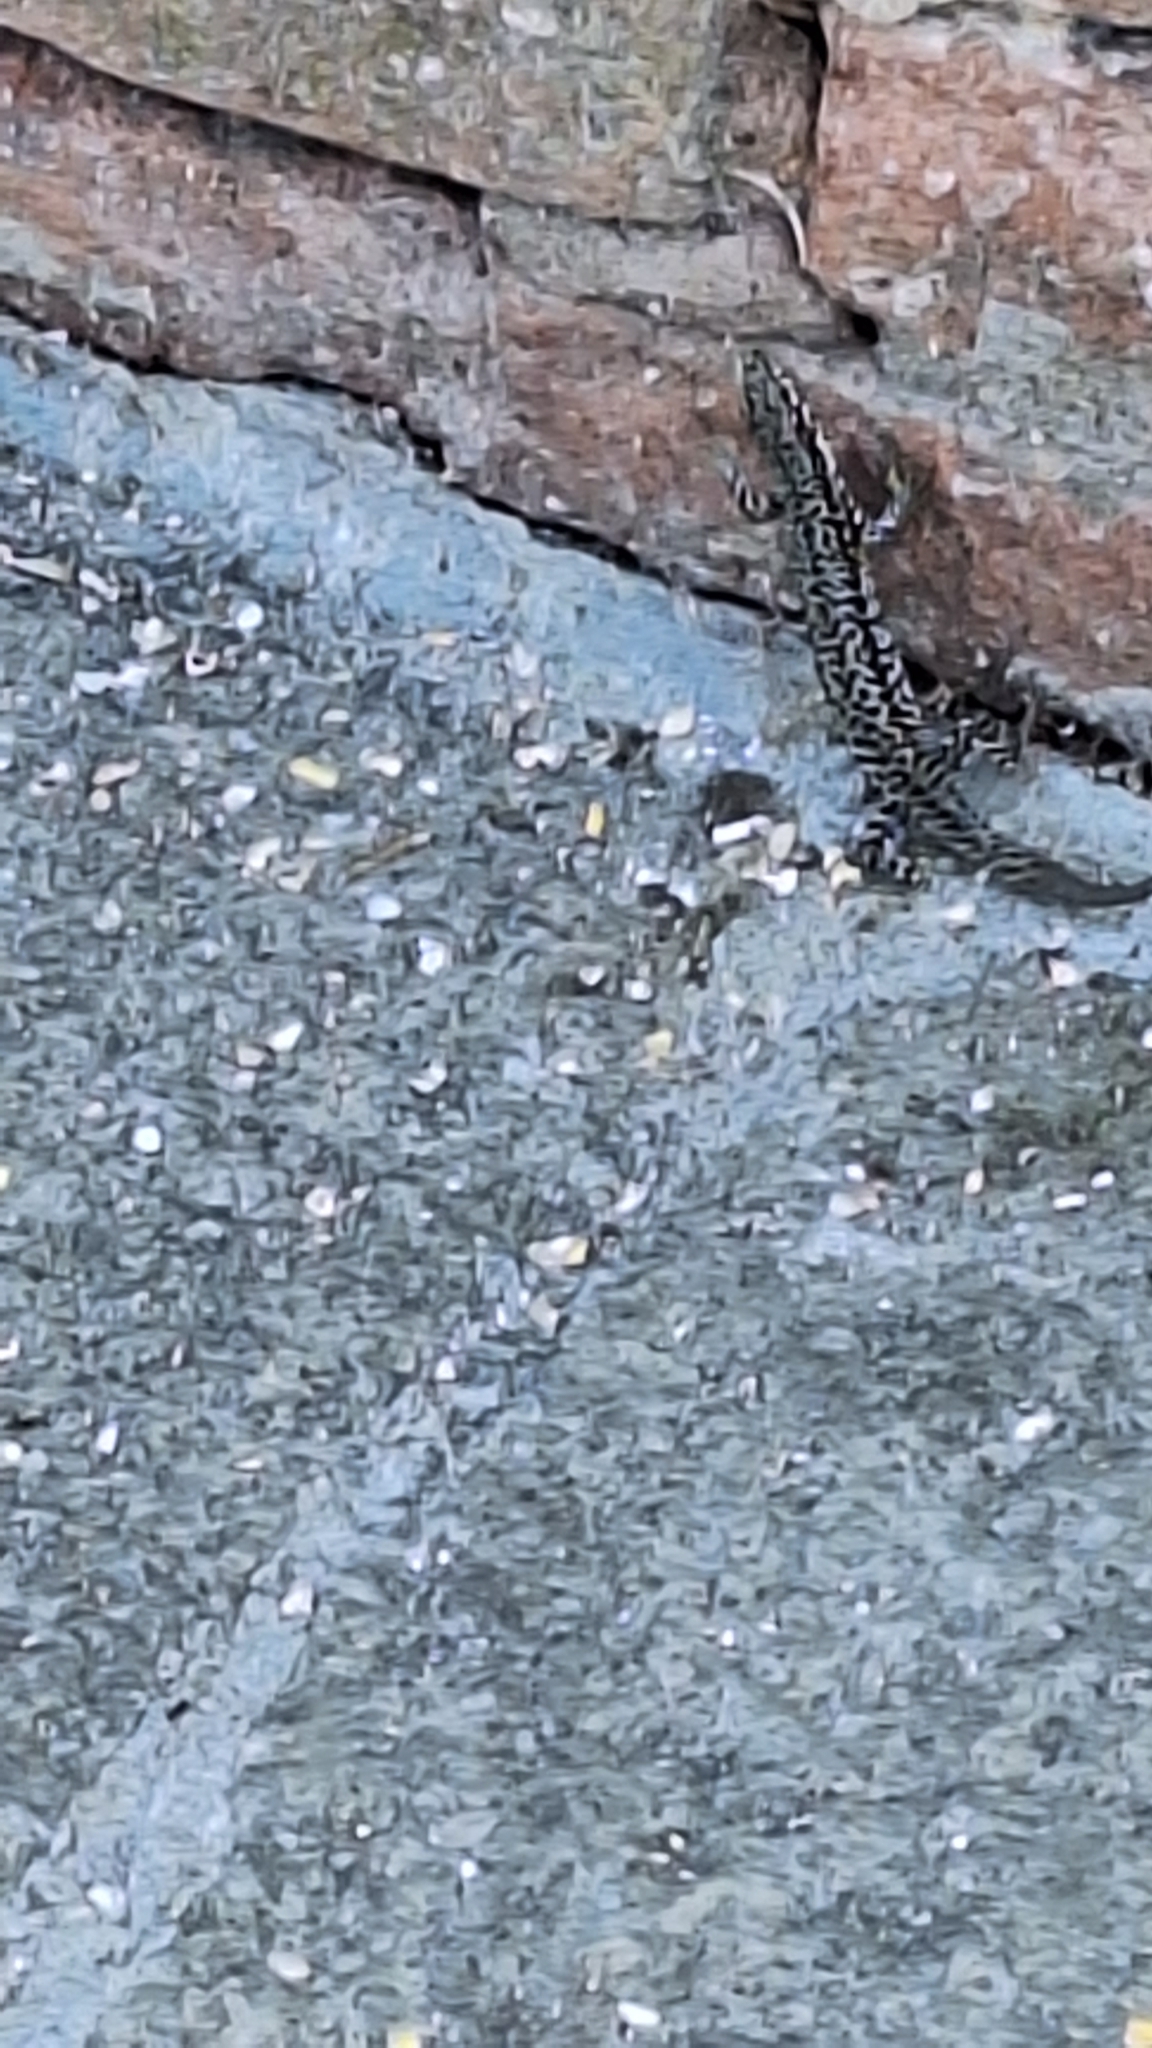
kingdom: Animalia
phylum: Chordata
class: Squamata
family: Lacertidae
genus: Podarcis
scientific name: Podarcis muralis
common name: Common wall lizard
